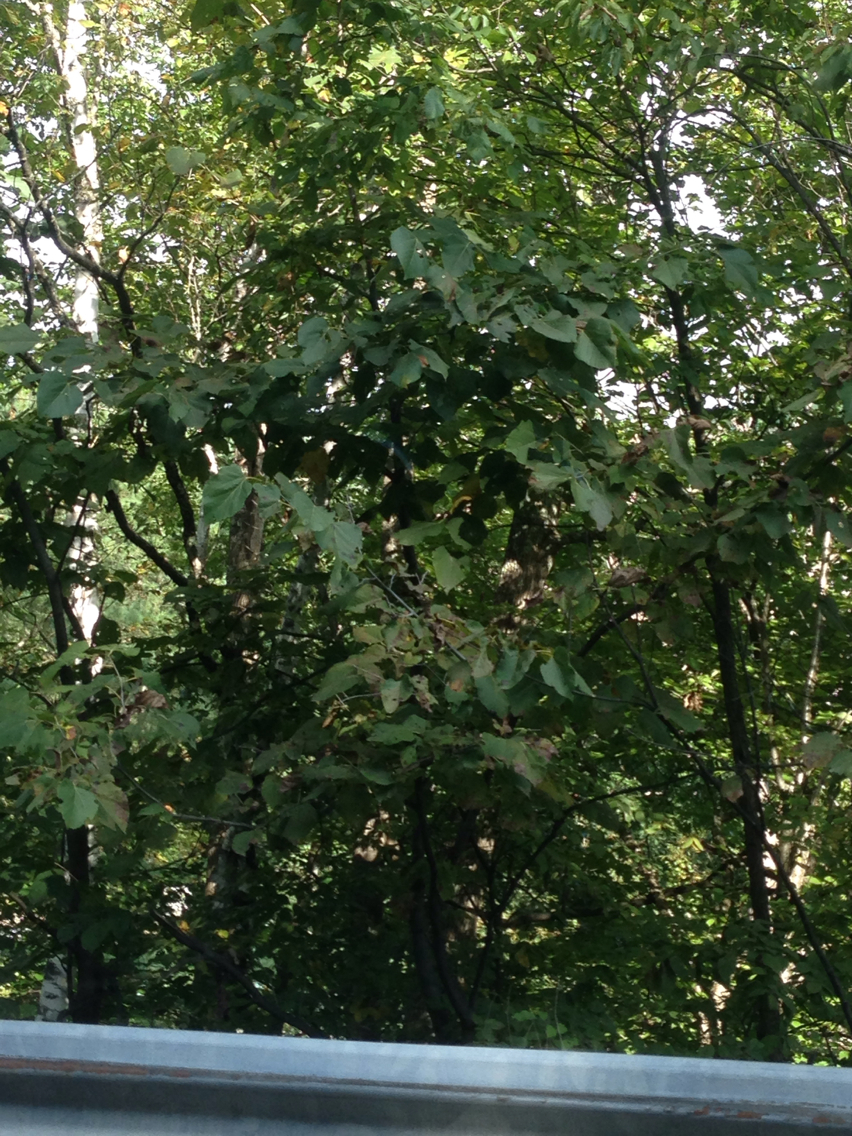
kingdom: Plantae
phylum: Tracheophyta
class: Magnoliopsida
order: Malvales
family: Malvaceae
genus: Tilia
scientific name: Tilia americana
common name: Basswood
